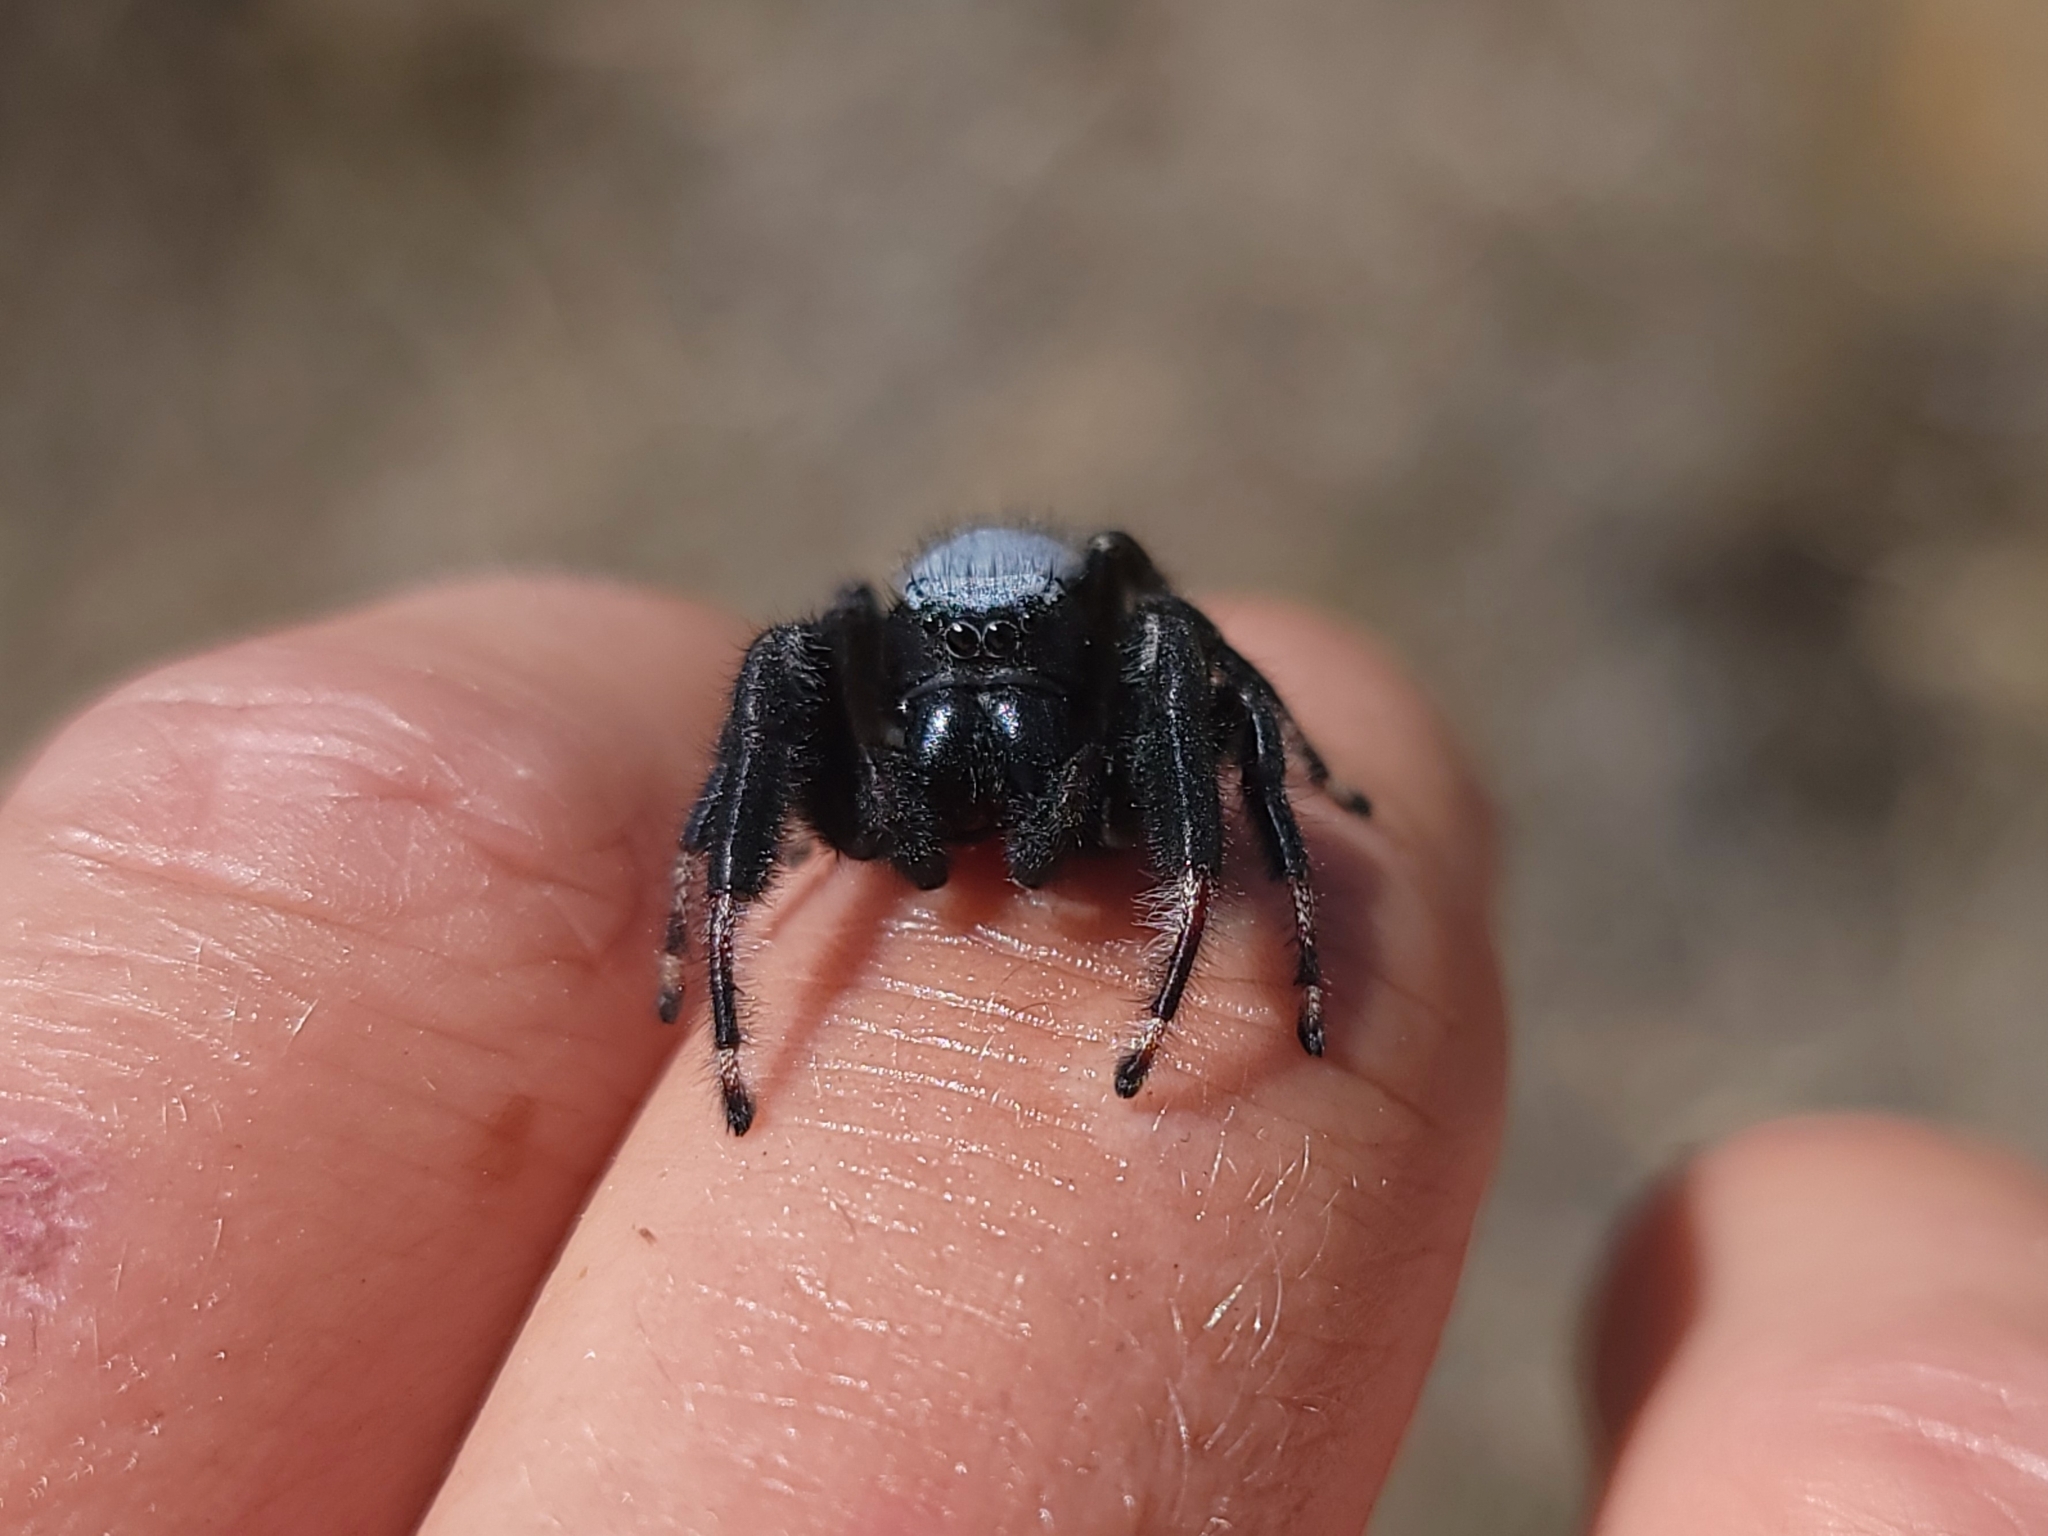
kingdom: Animalia
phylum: Arthropoda
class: Arachnida
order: Araneae
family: Salticidae
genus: Phidippus
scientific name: Phidippus octopunctatus
